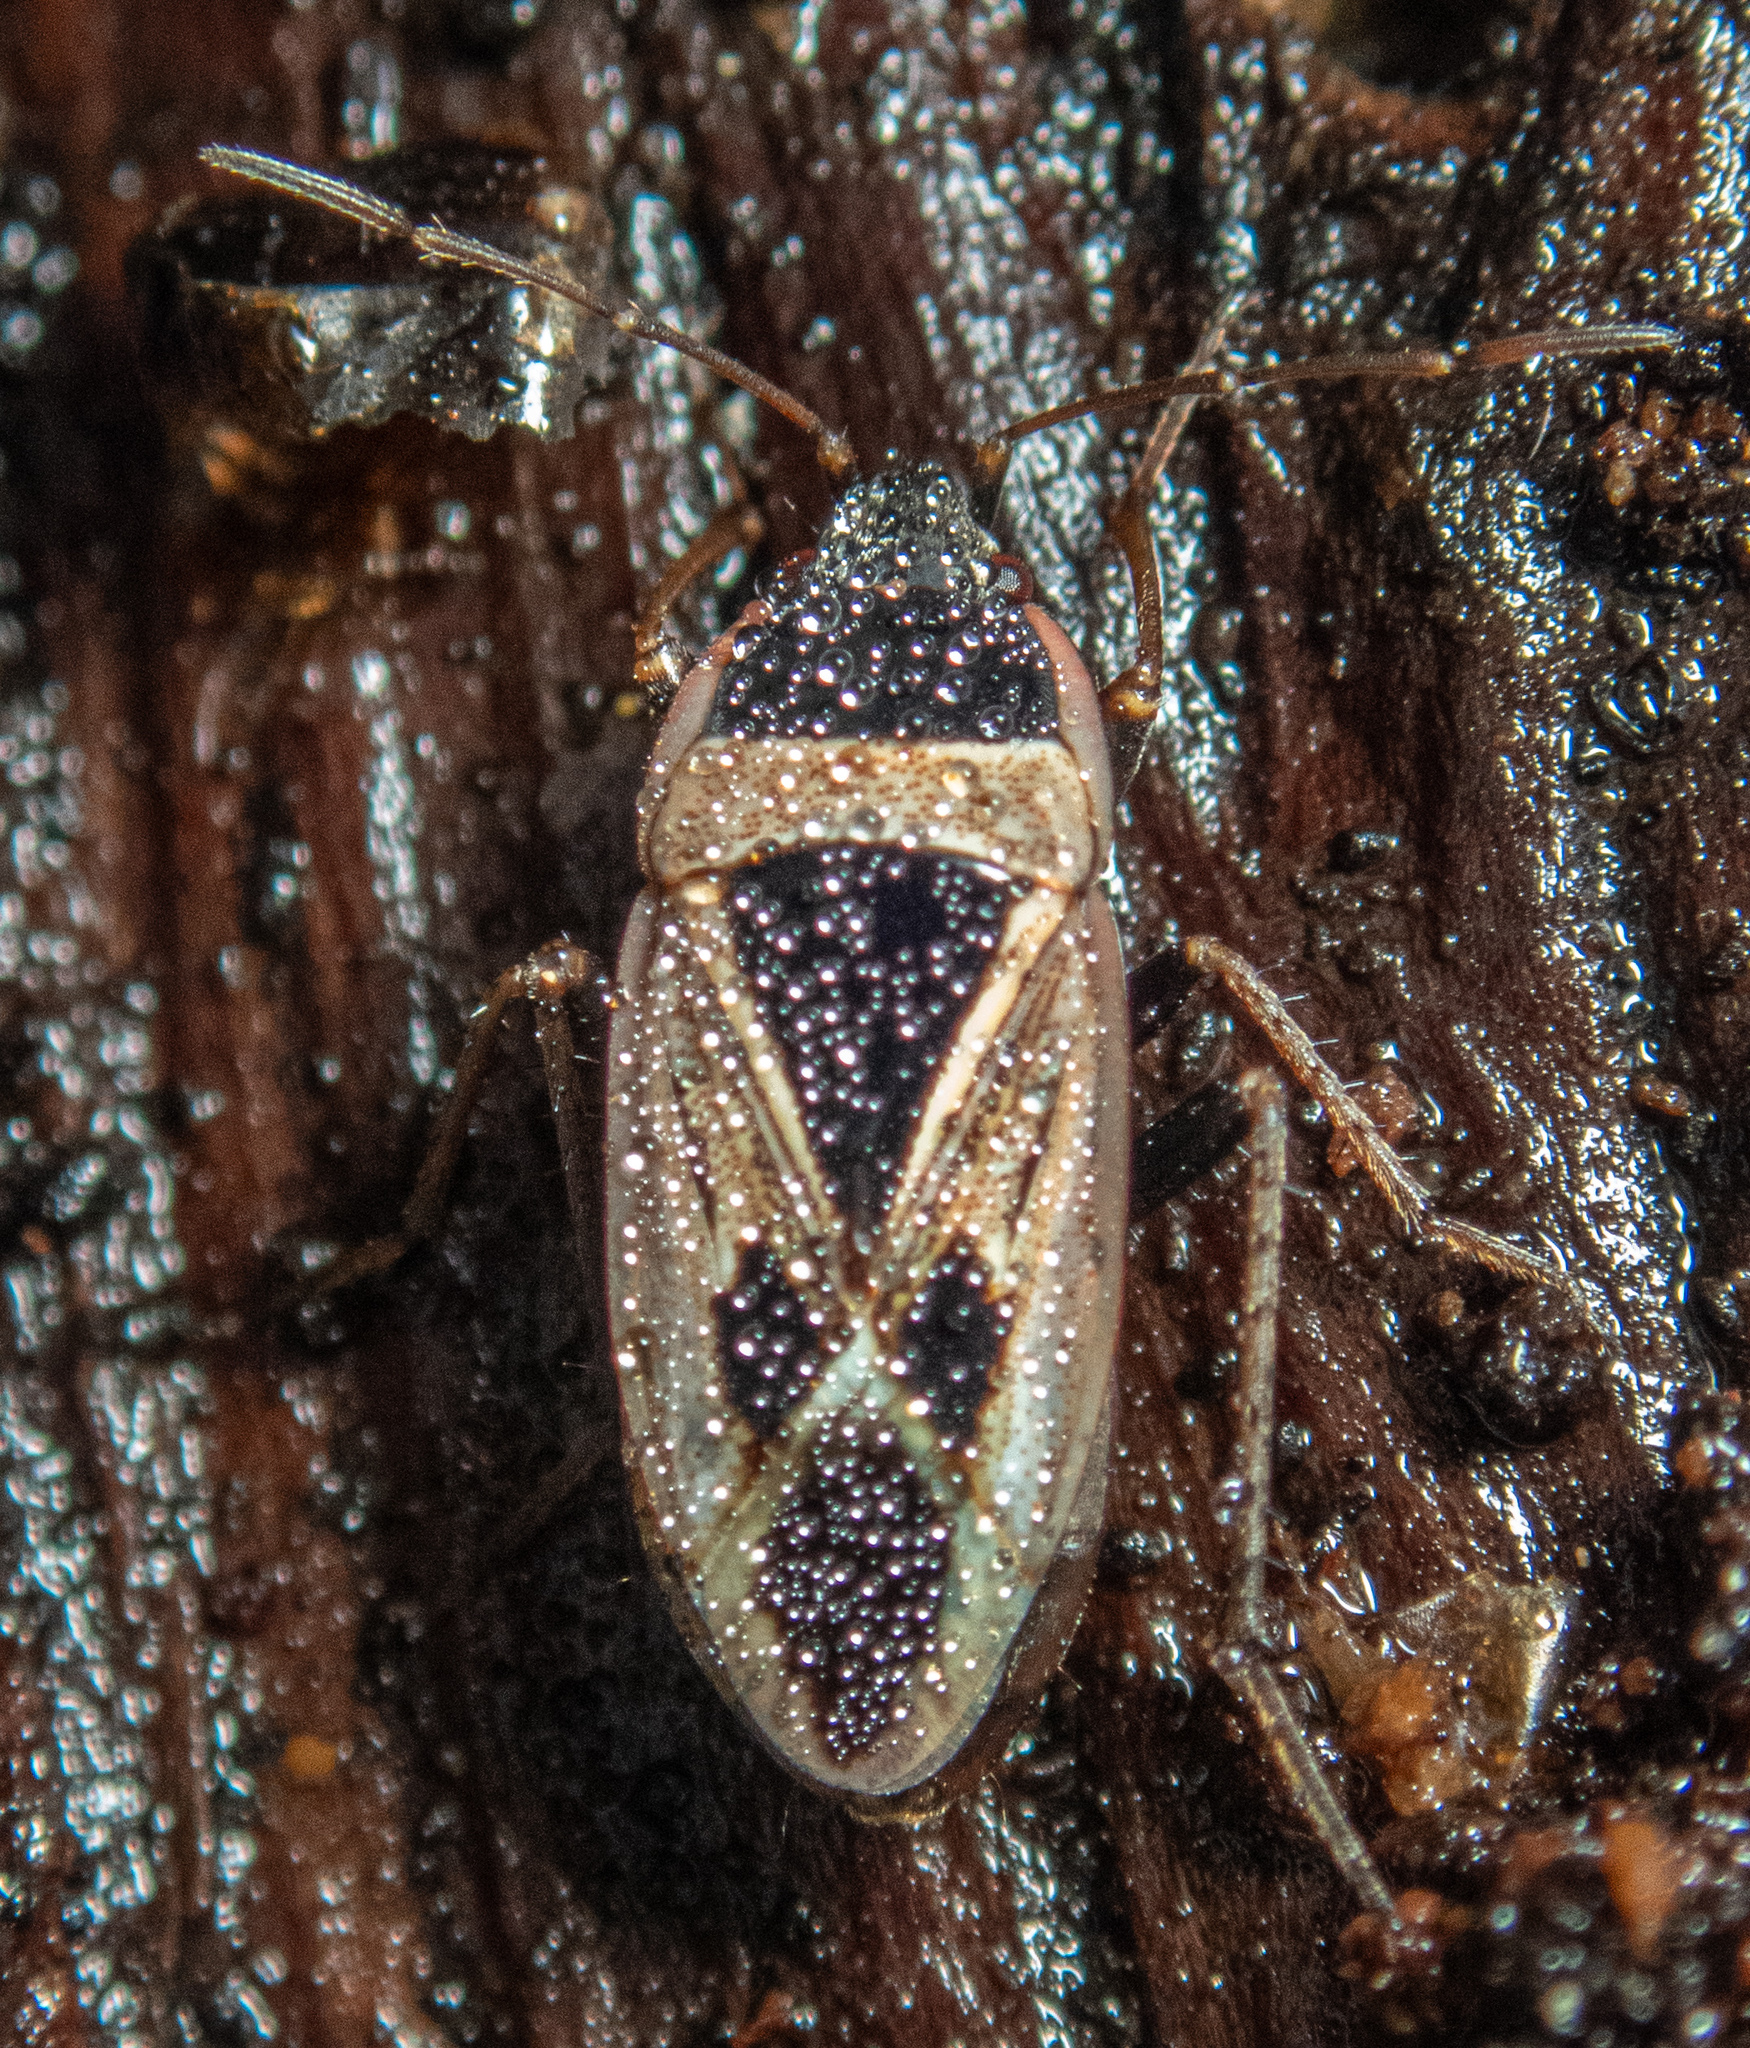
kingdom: Animalia
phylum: Arthropoda
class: Insecta
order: Hemiptera
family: Rhyparochromidae
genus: Xanthochilus
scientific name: Xanthochilus saturnius
